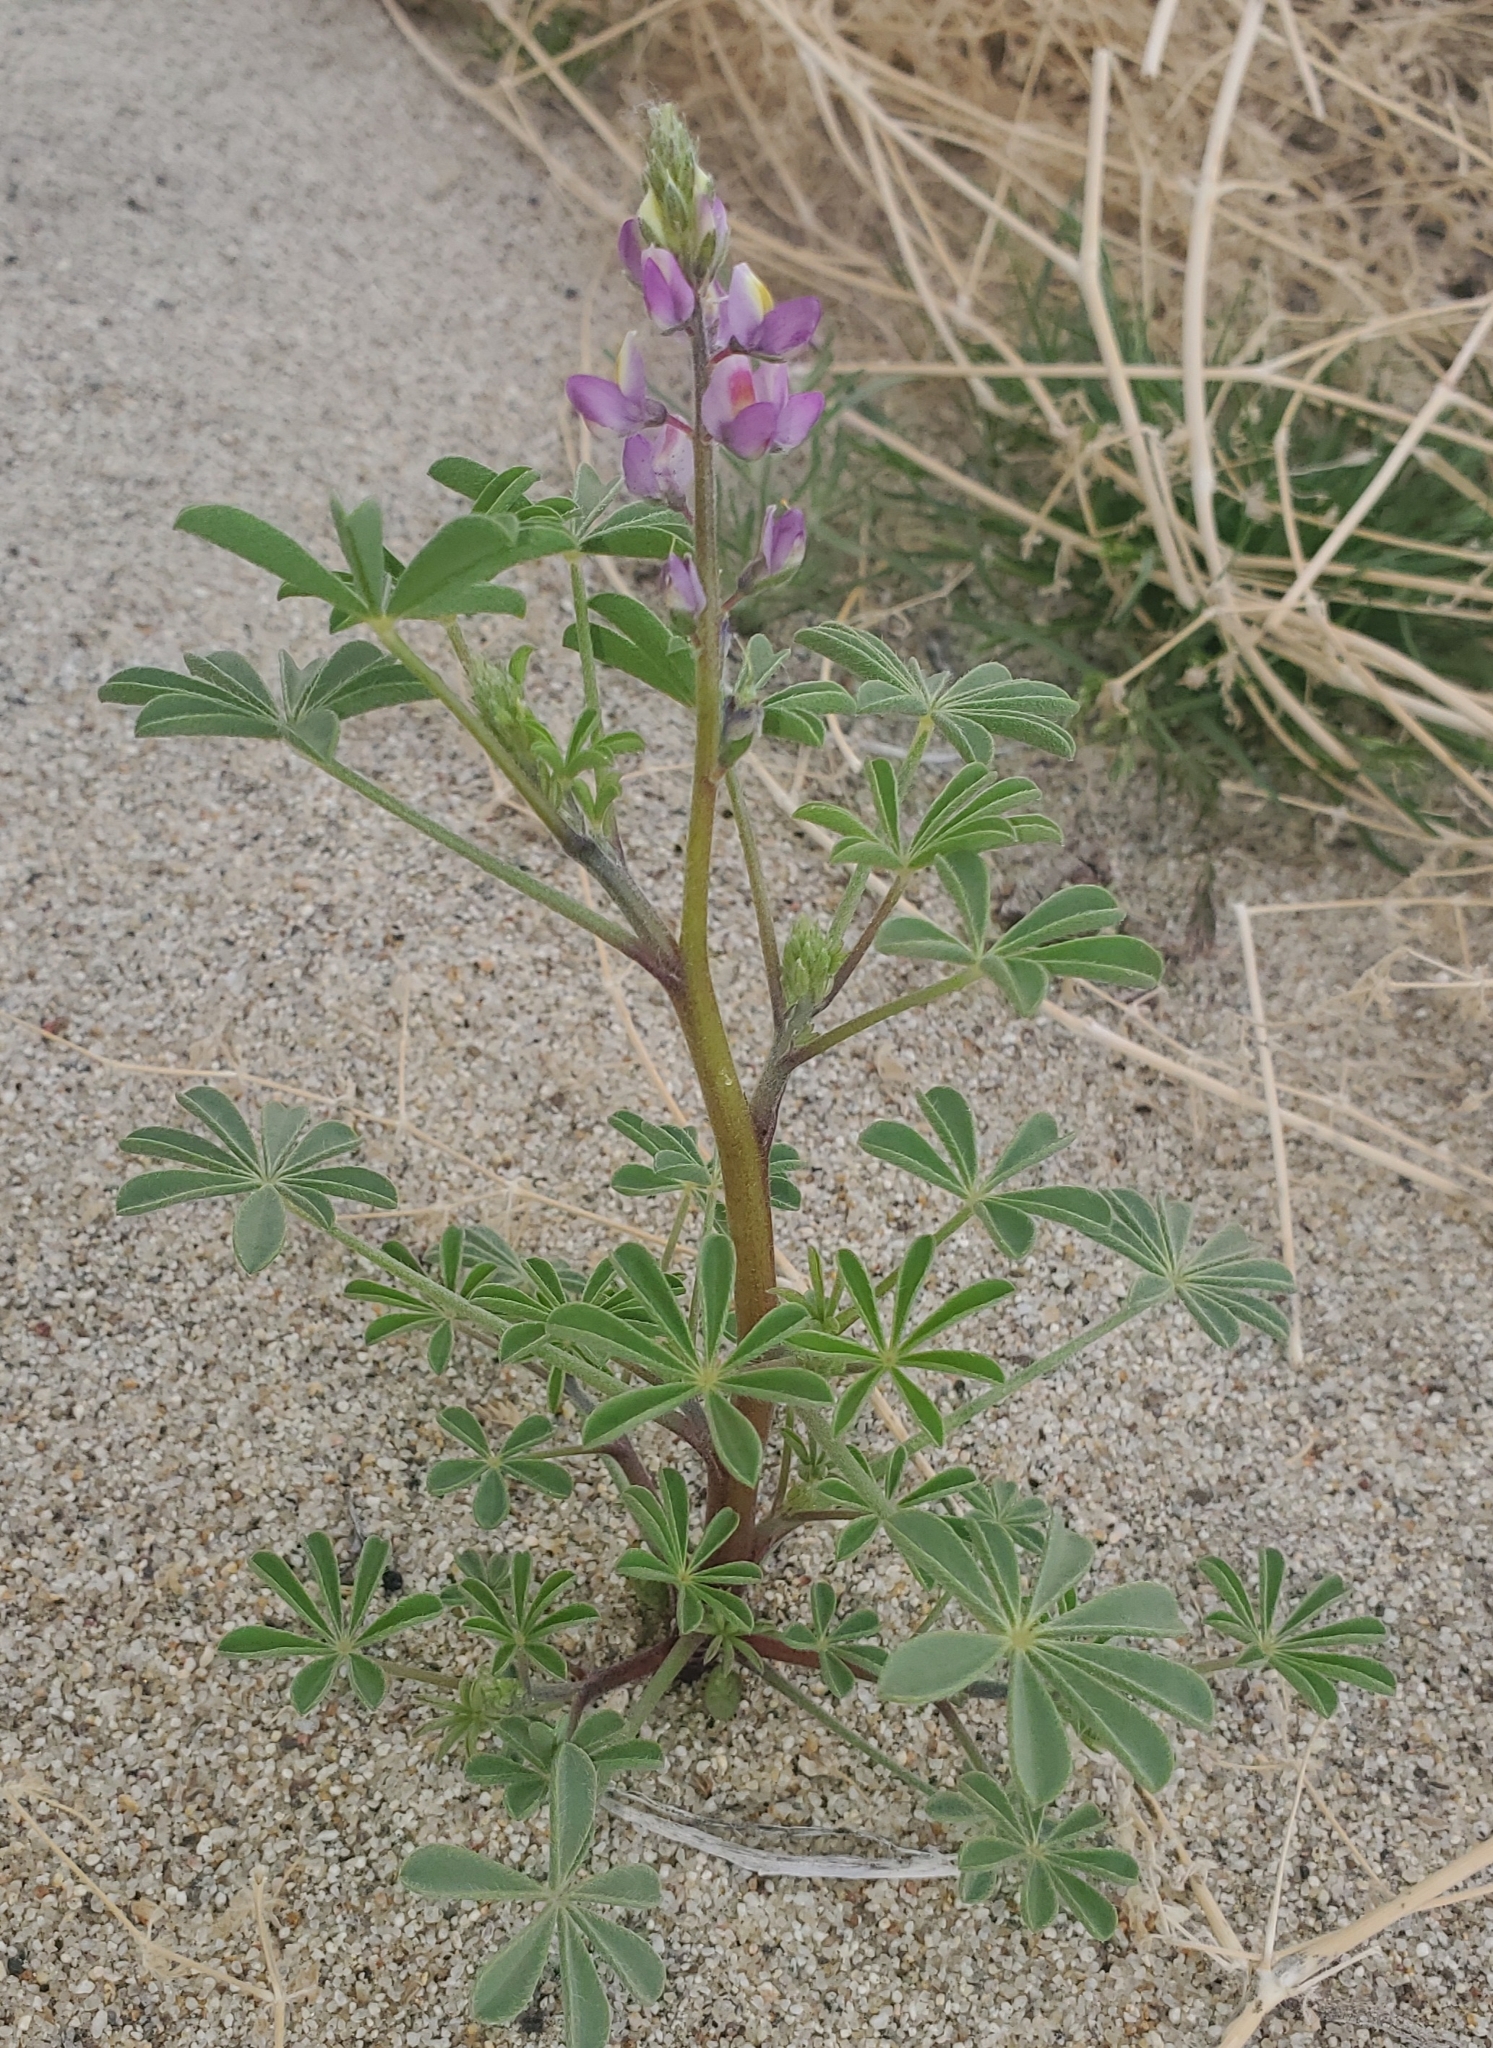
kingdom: Plantae
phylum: Tracheophyta
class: Magnoliopsida
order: Fabales
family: Fabaceae
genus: Lupinus
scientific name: Lupinus arizonicus
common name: Arizona lupine
